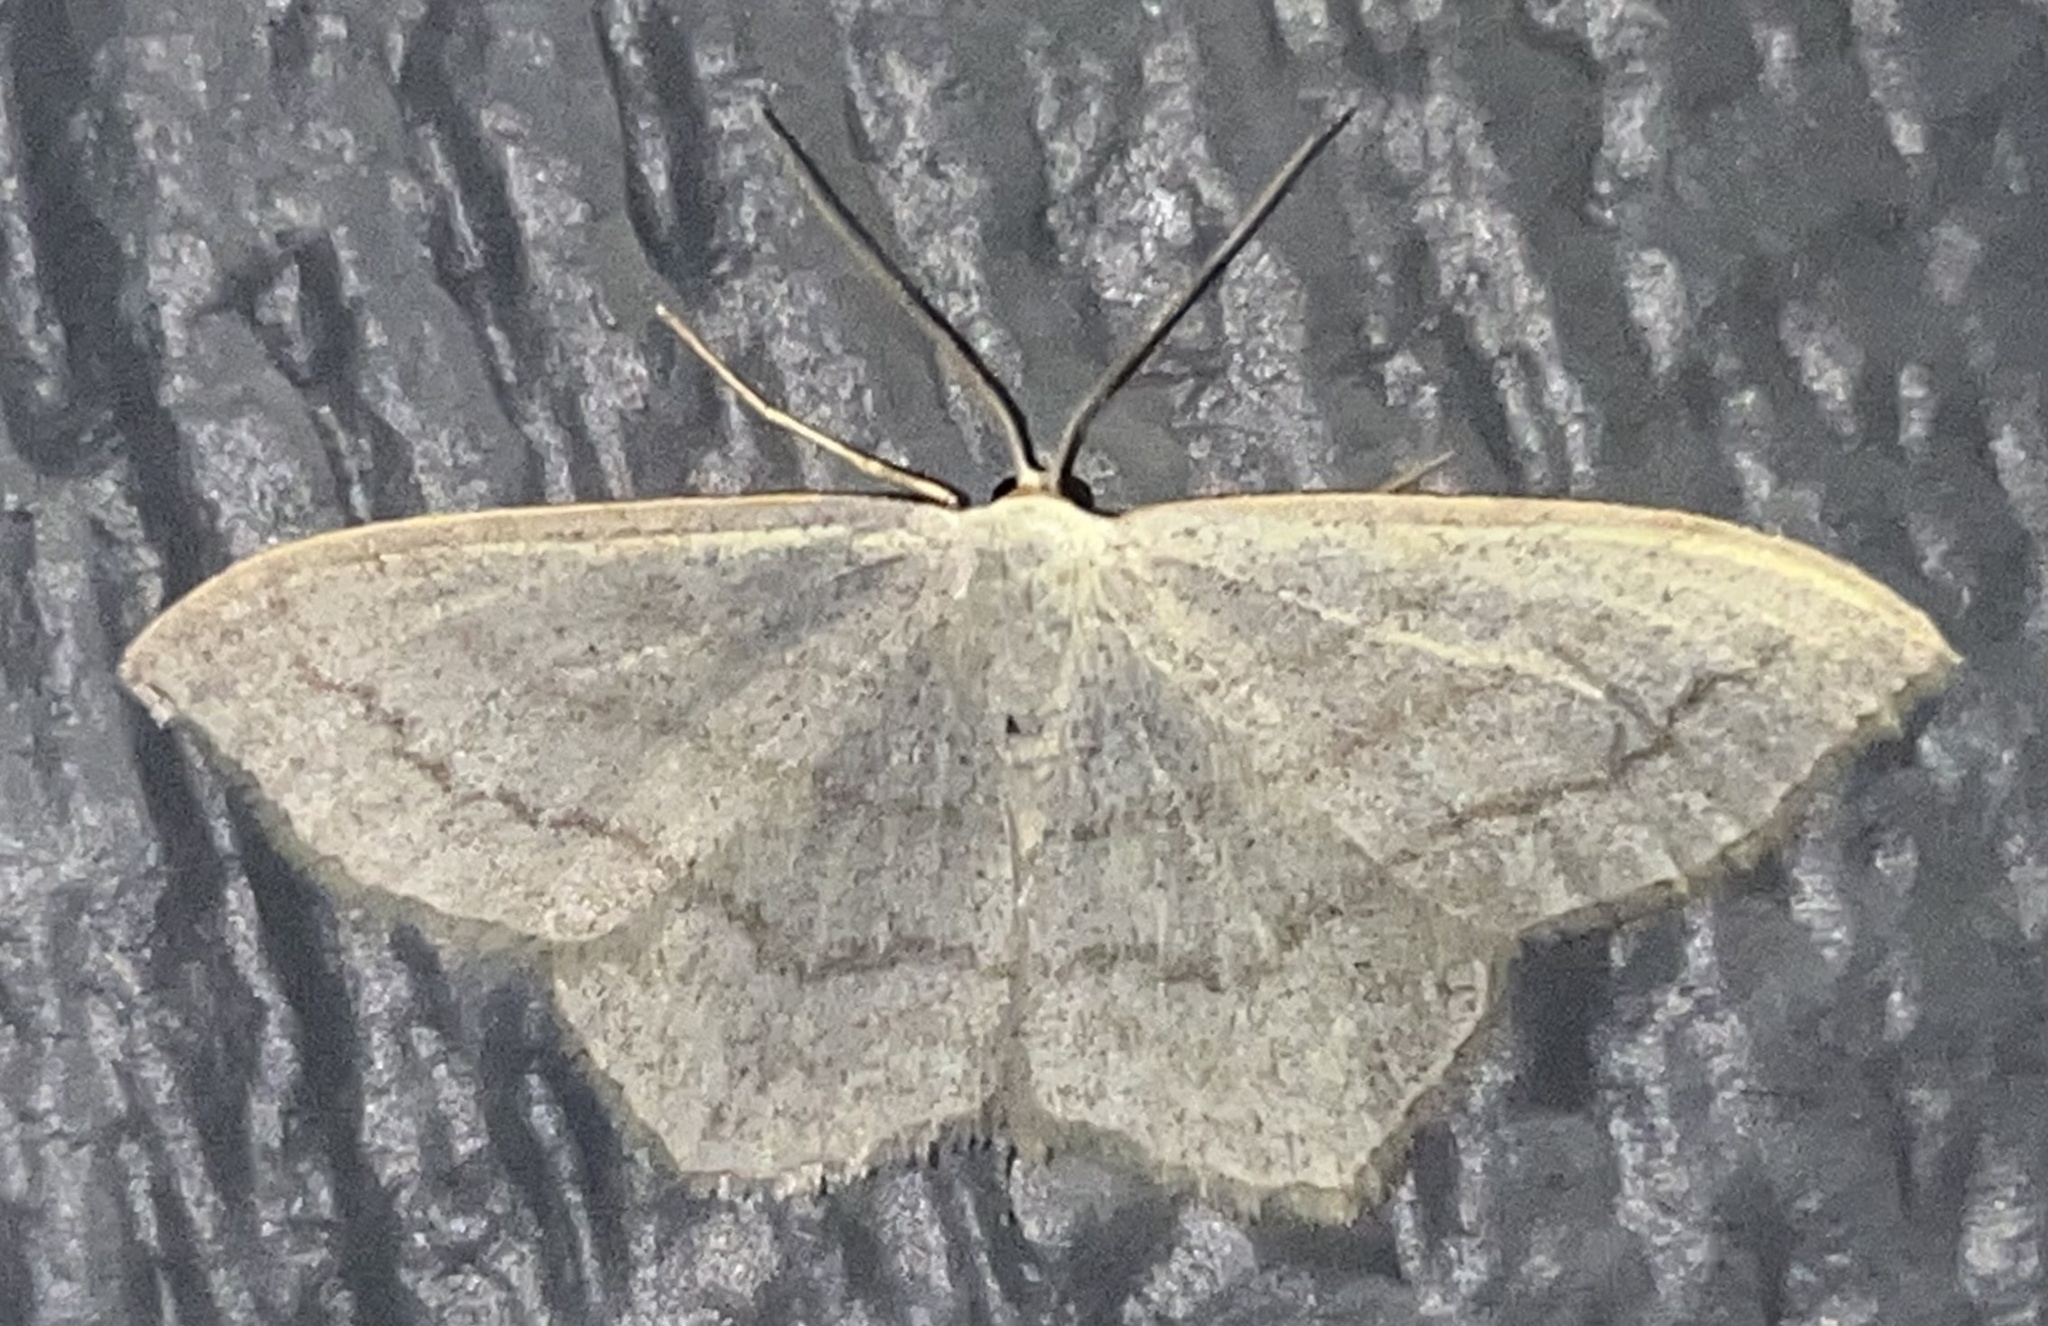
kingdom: Animalia
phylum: Arthropoda
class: Insecta
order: Lepidoptera
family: Geometridae
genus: Scopula
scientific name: Scopula junctaria
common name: Simple wave
